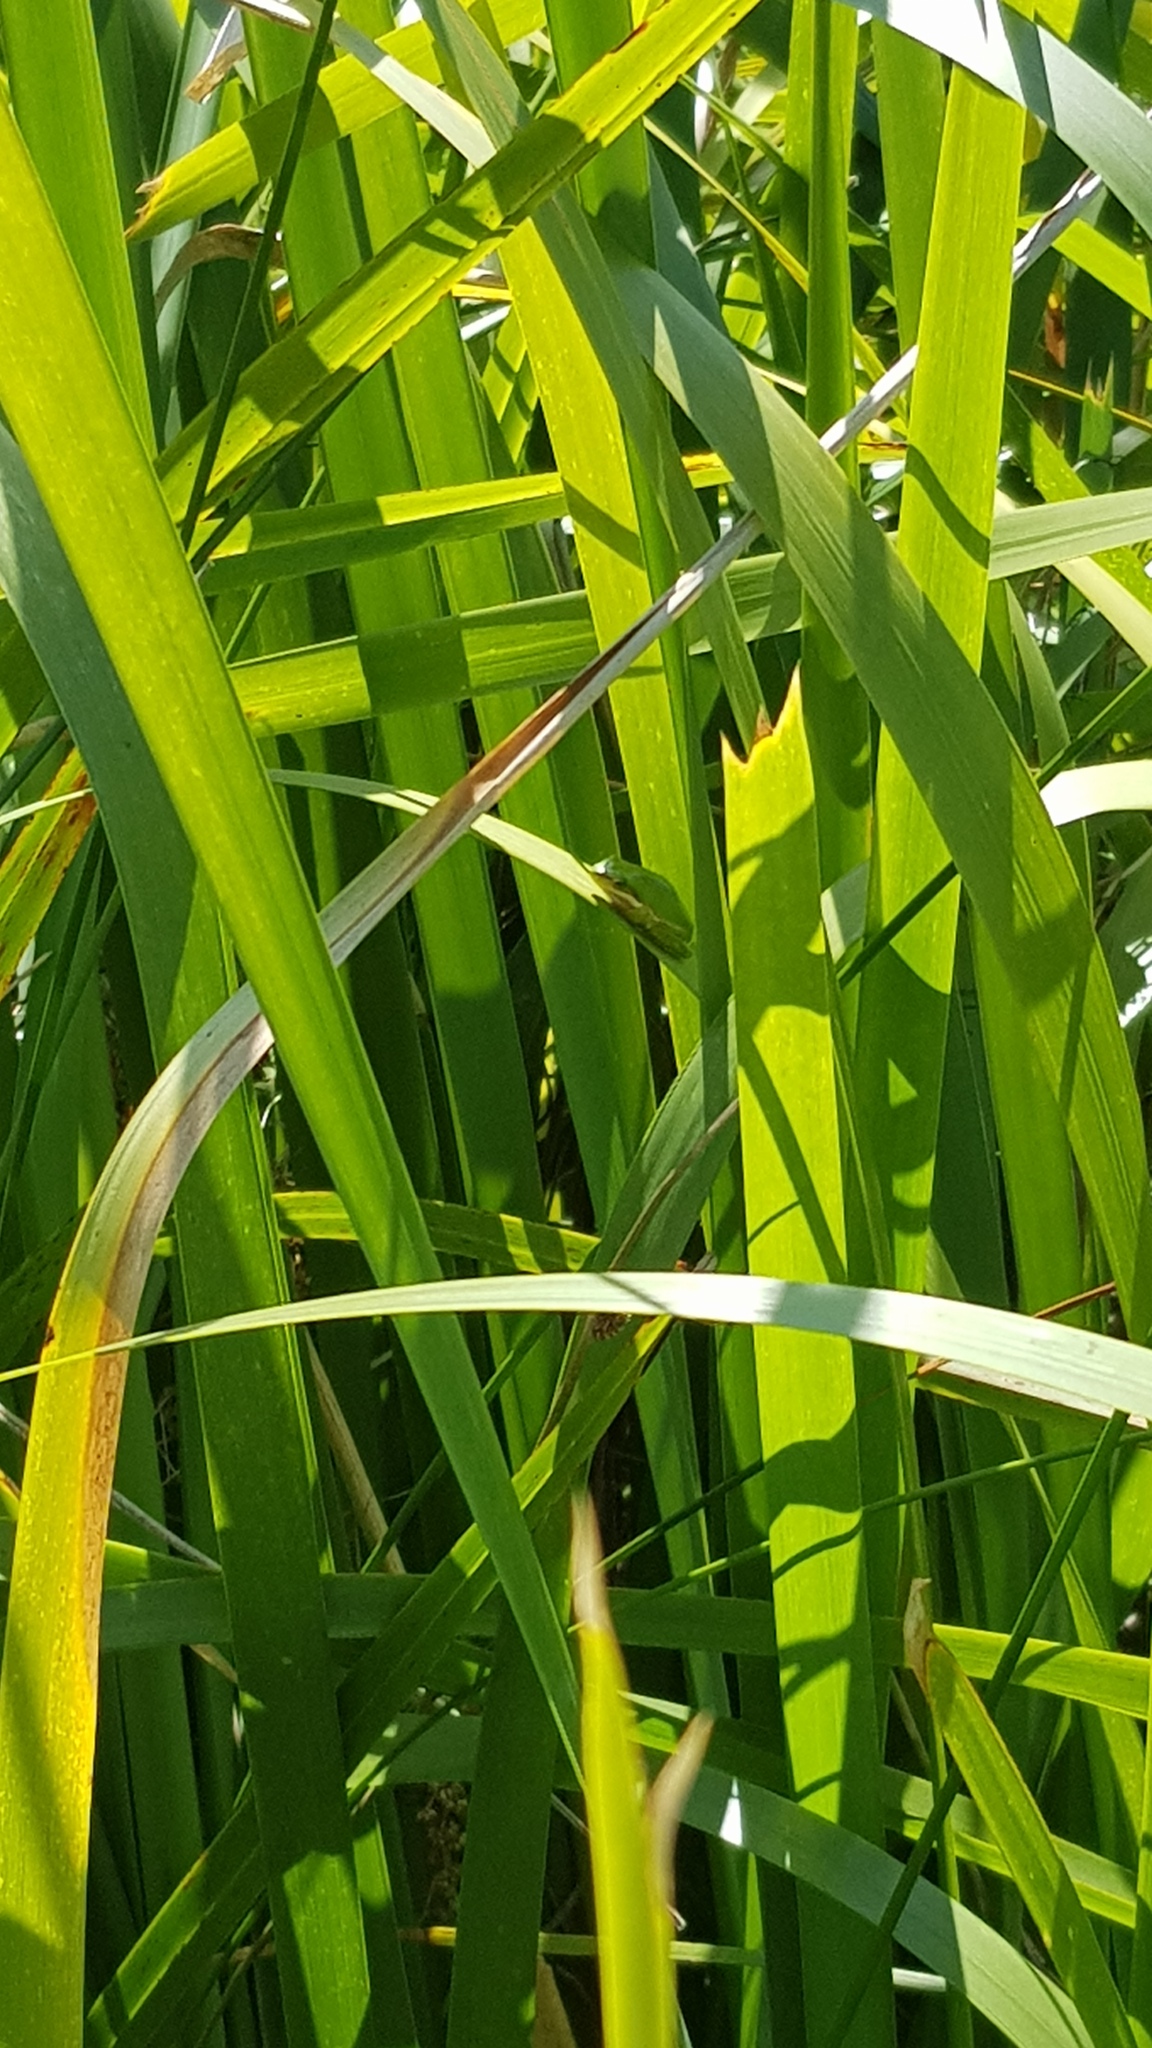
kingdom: Animalia
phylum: Chordata
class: Amphibia
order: Anura
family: Pelodryadidae
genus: Litoria
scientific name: Litoria fallax
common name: Eastern dwarf treefrog
